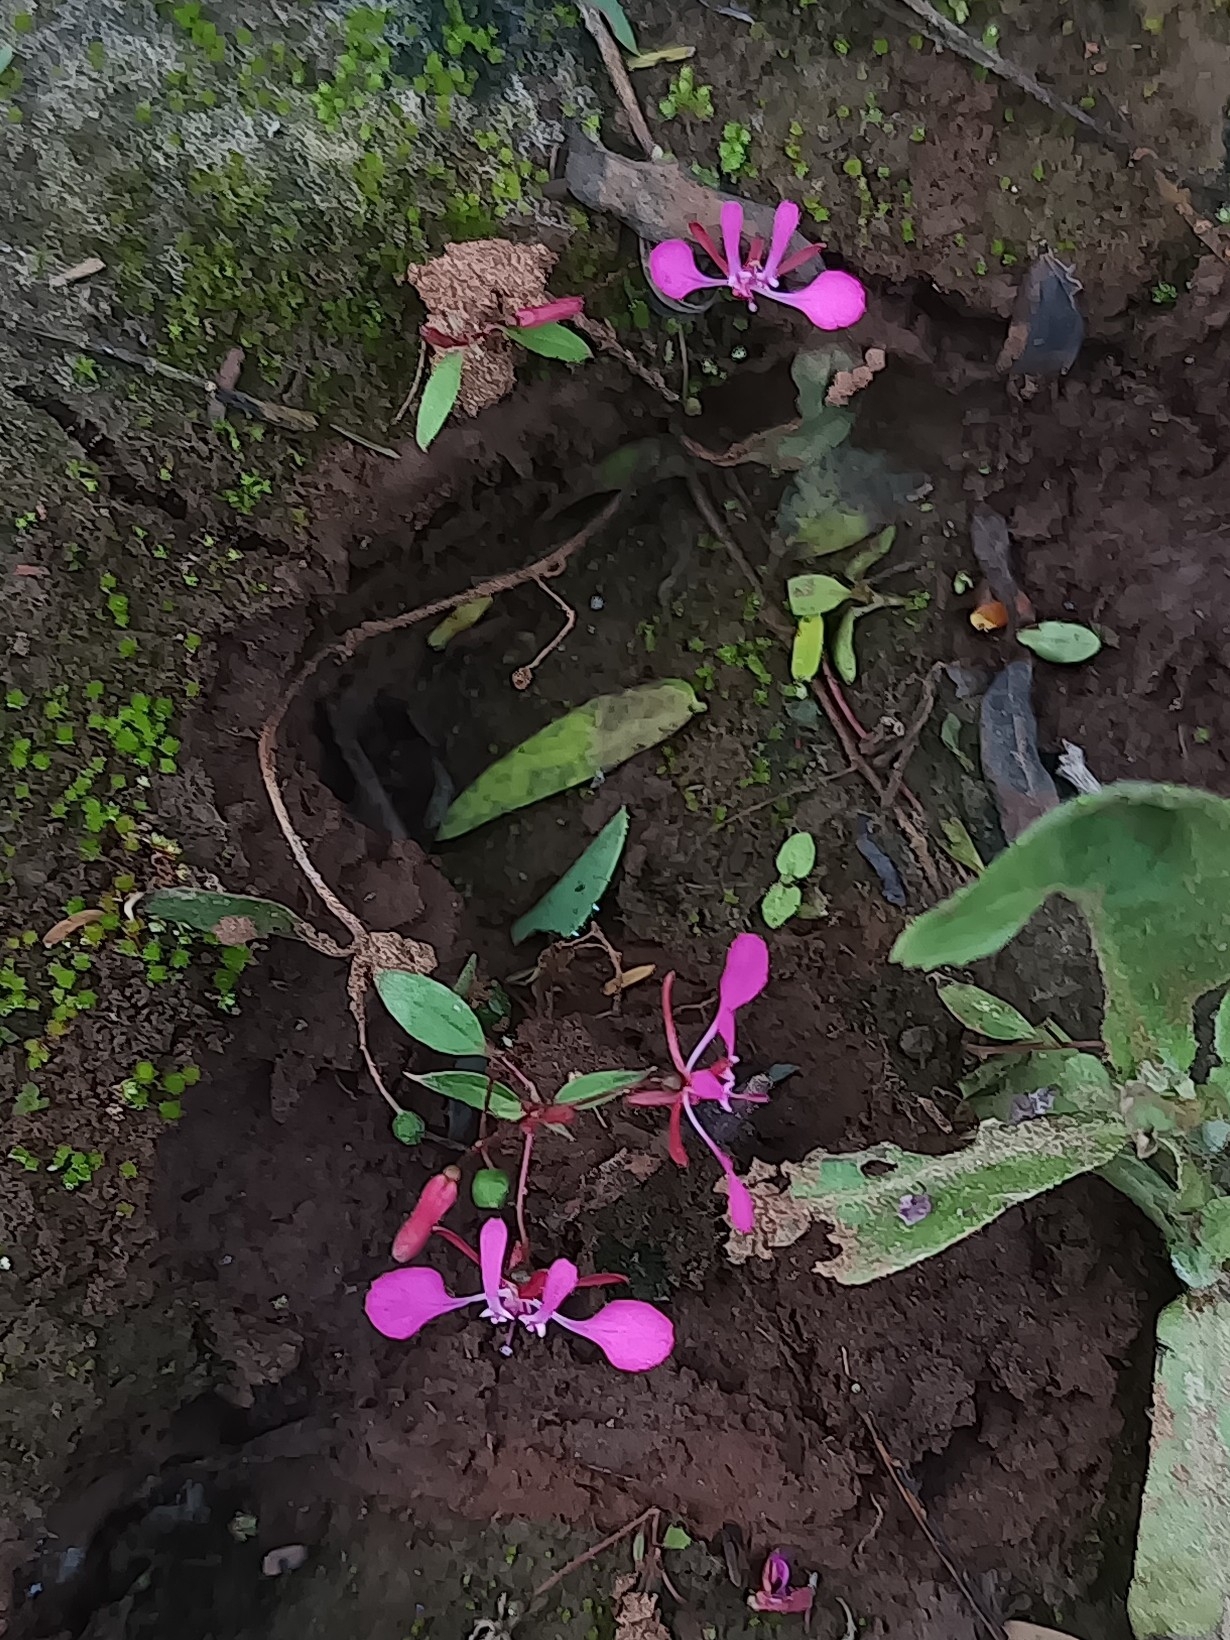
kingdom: Plantae
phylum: Tracheophyta
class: Magnoliopsida
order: Myrtales
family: Onagraceae
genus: Lopezia
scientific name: Lopezia racemosa
